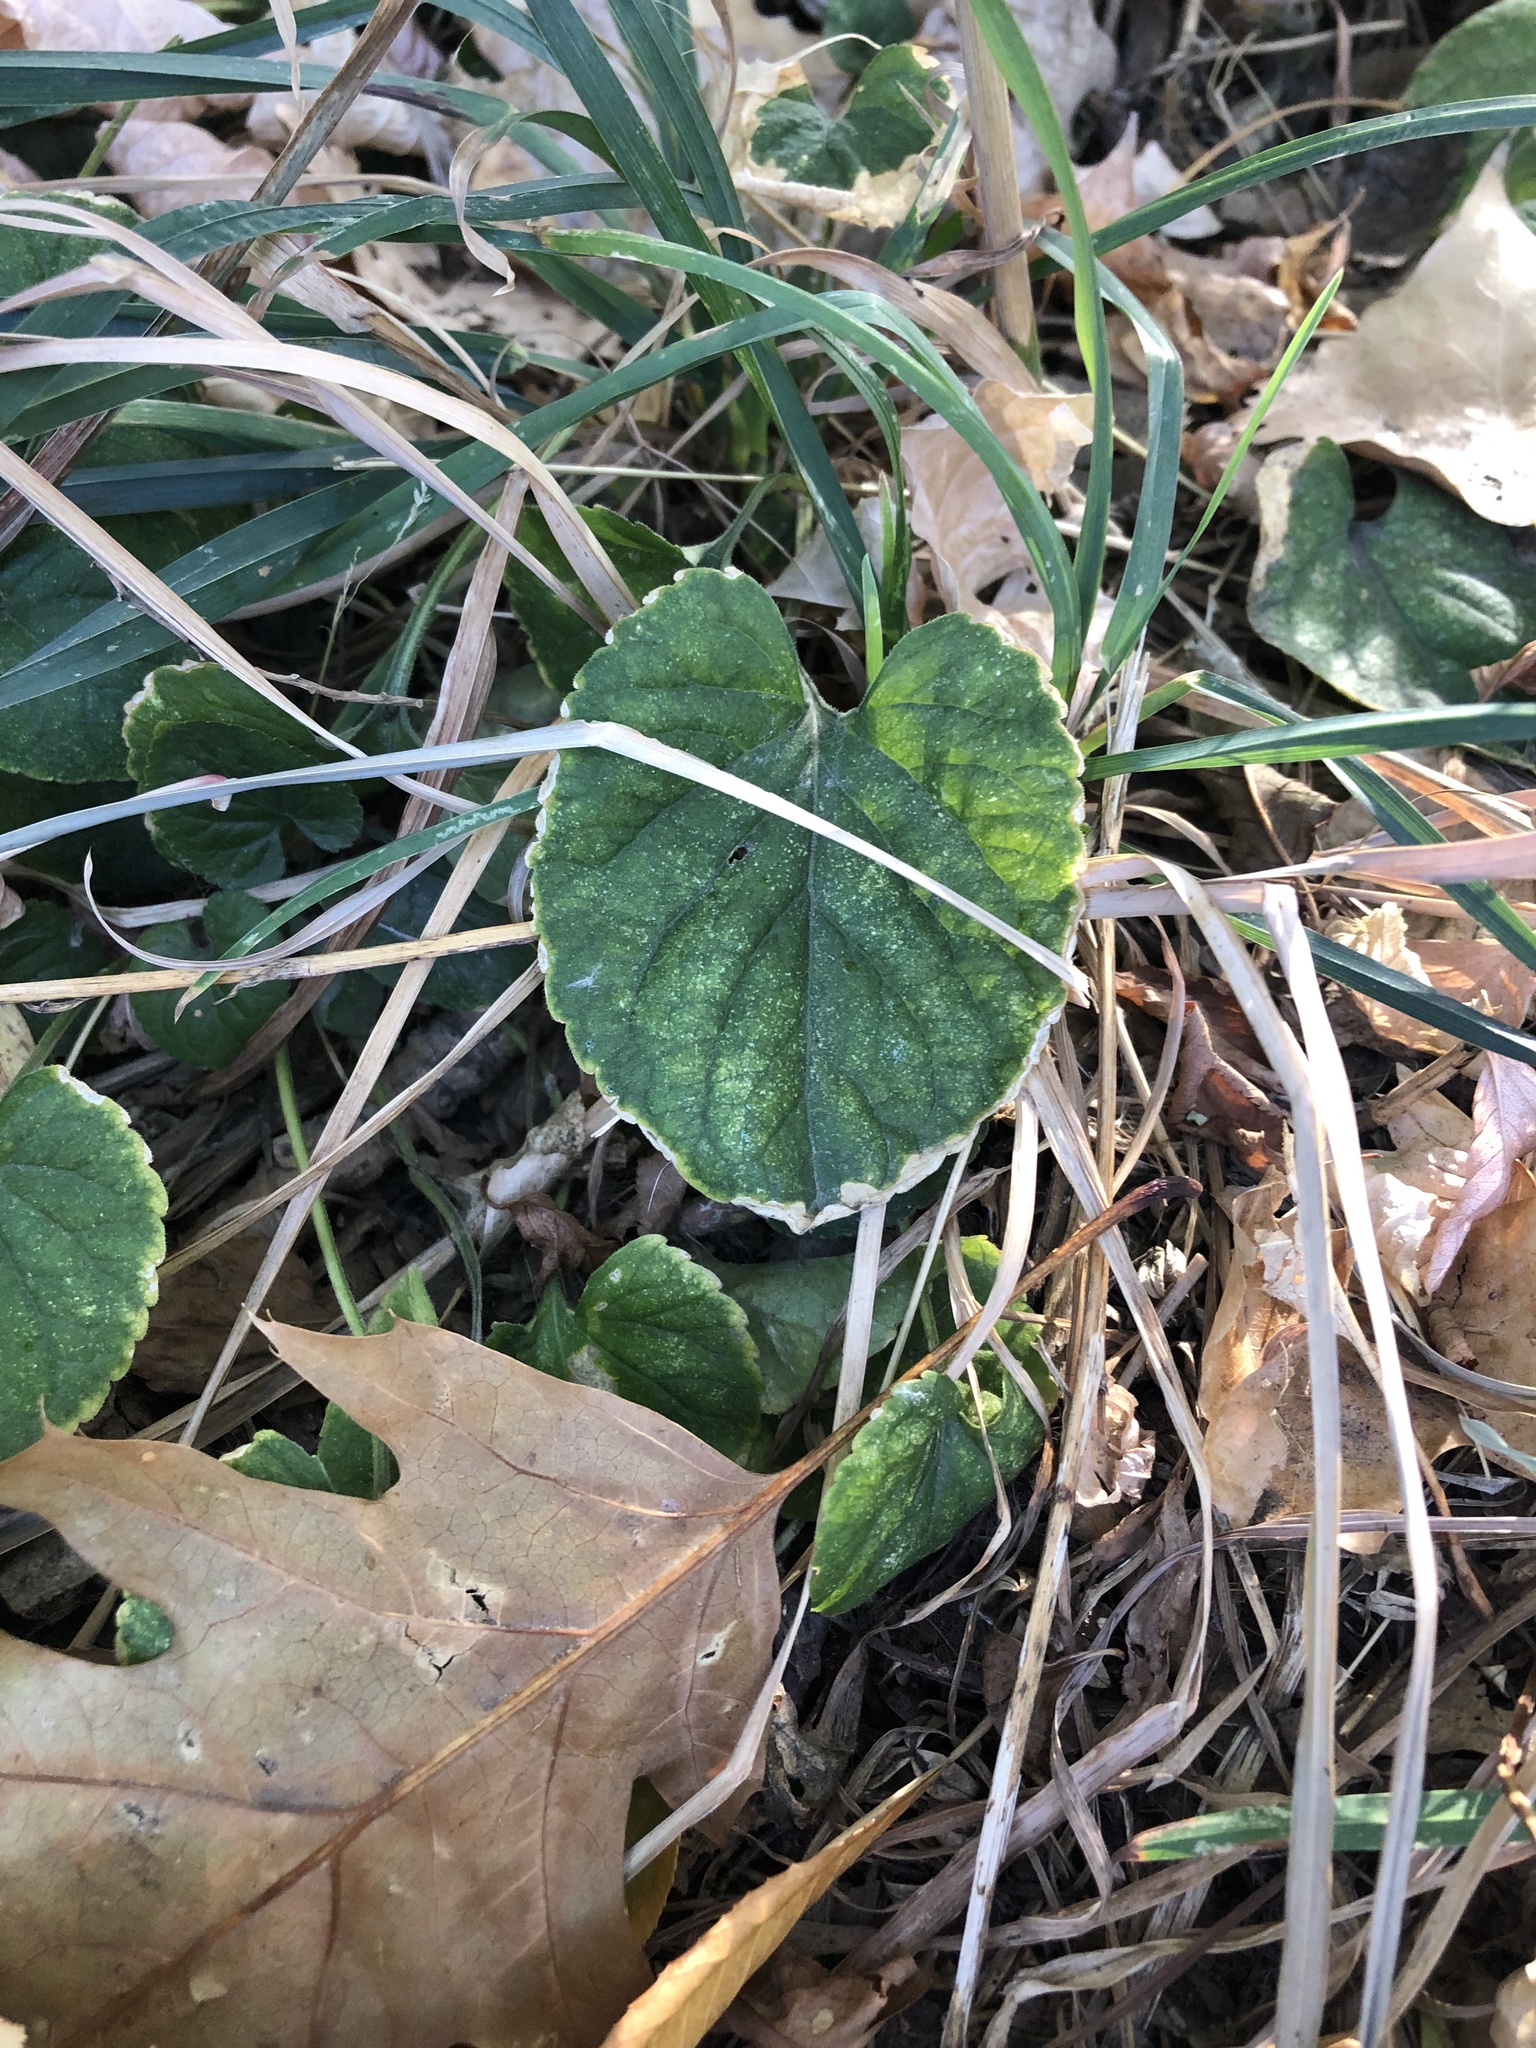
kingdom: Plantae
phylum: Tracheophyta
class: Magnoliopsida
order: Malpighiales
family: Violaceae
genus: Viola
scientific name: Viola
